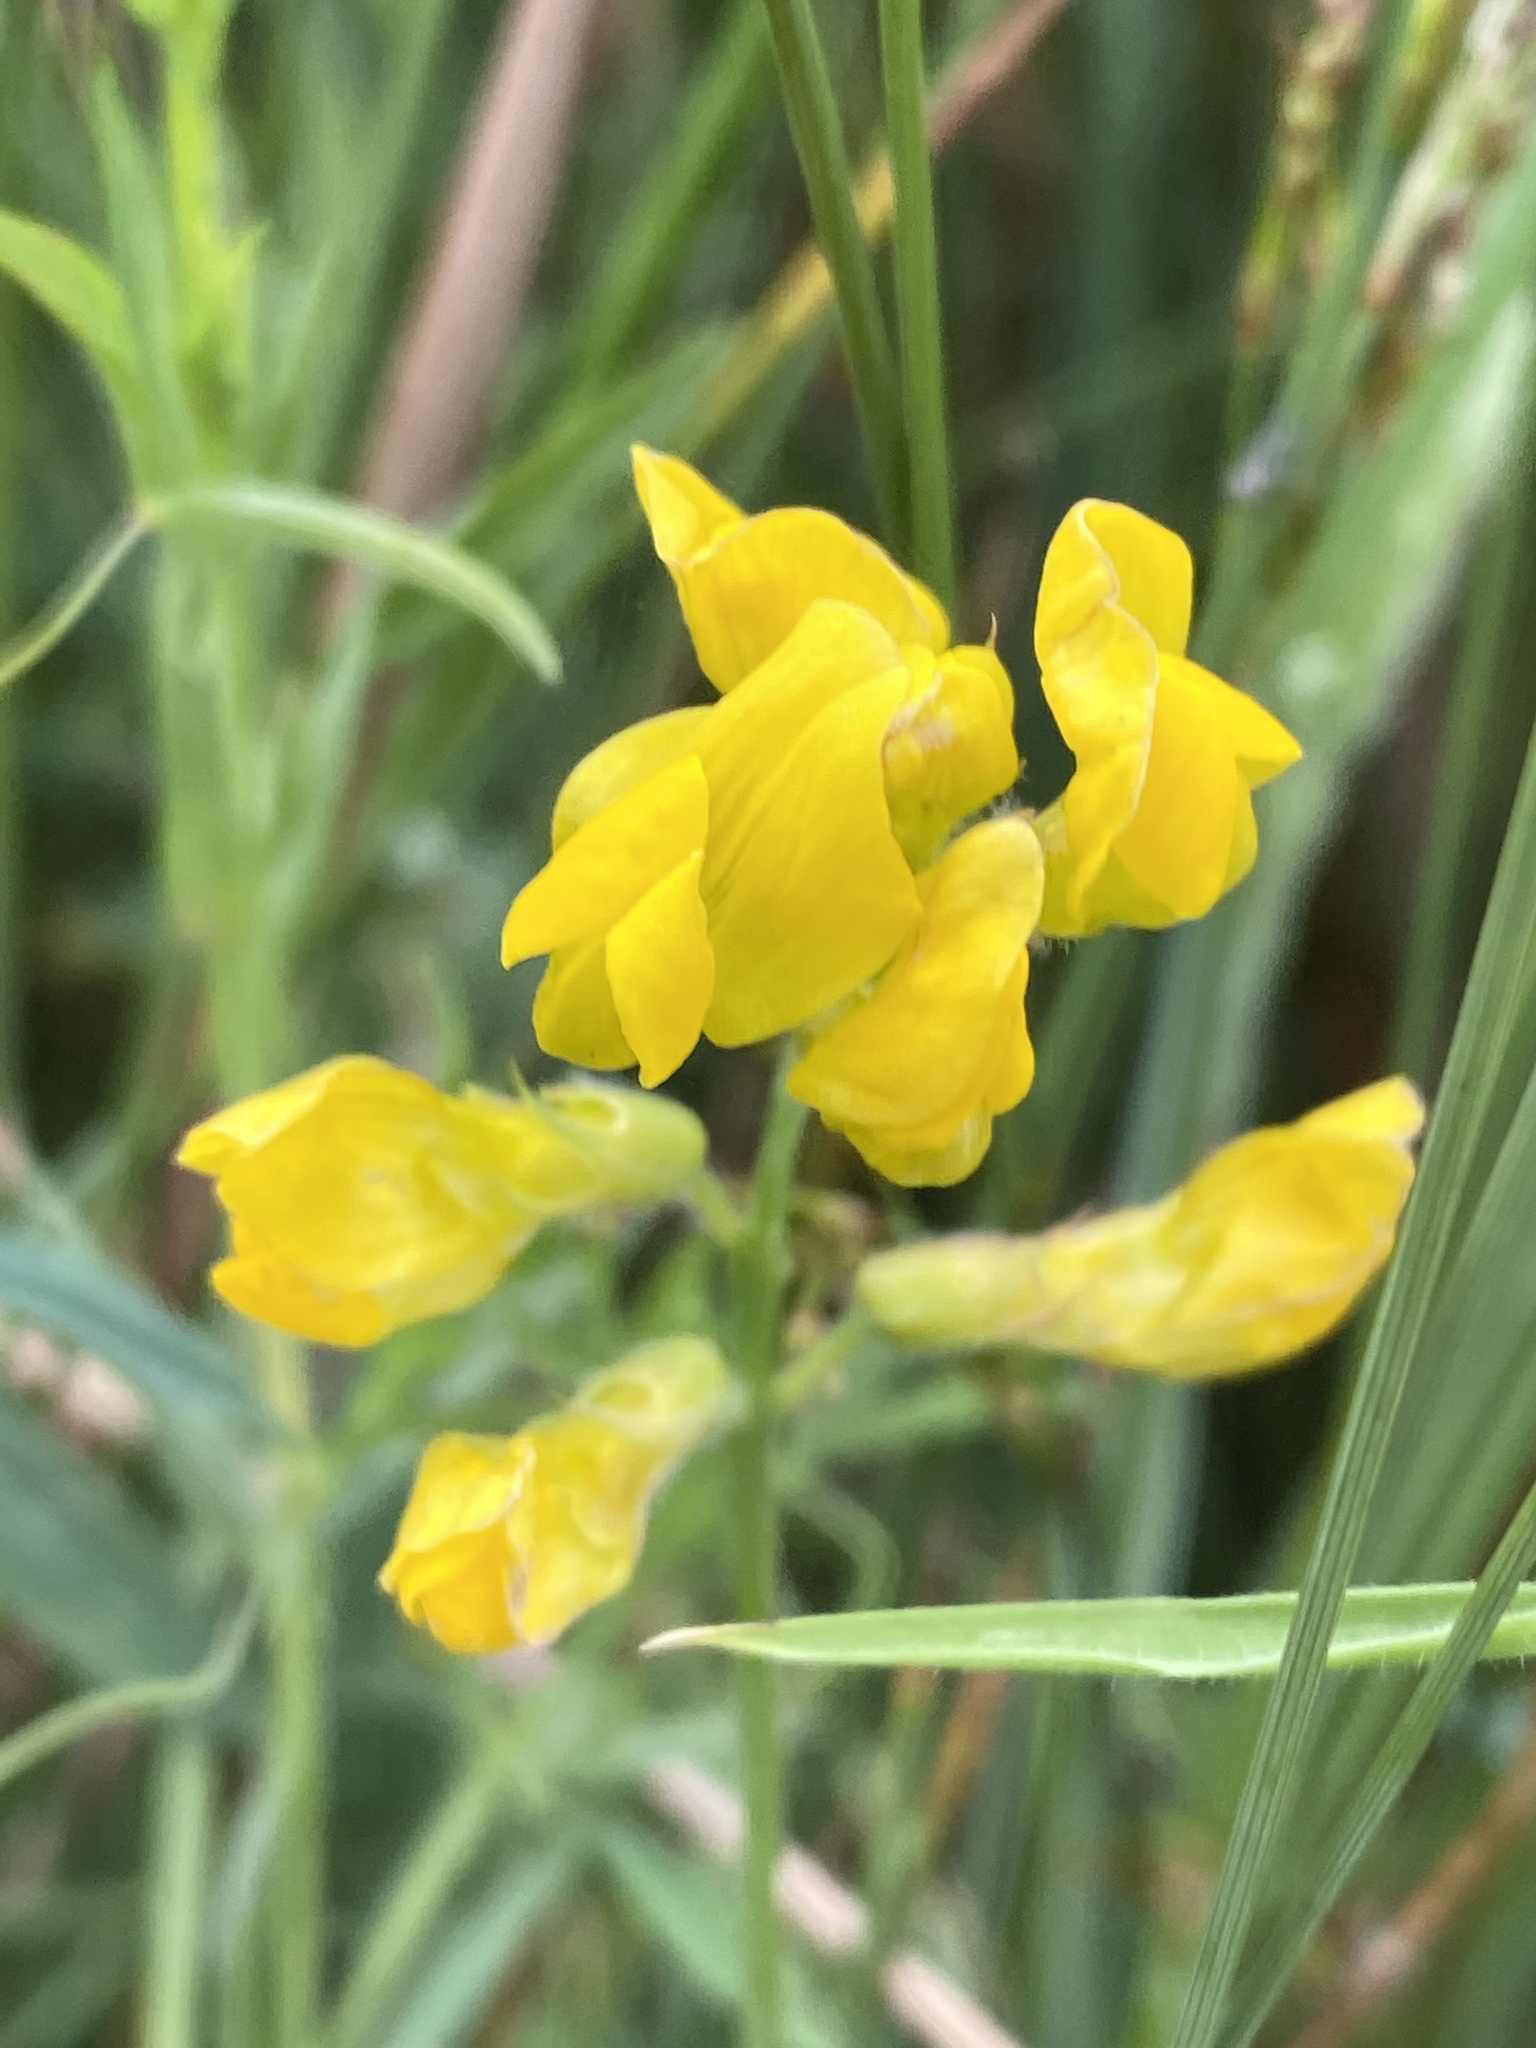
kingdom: Plantae
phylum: Tracheophyta
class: Magnoliopsida
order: Fabales
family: Fabaceae
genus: Lathyrus
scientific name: Lathyrus pratensis
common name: Meadow vetchling
